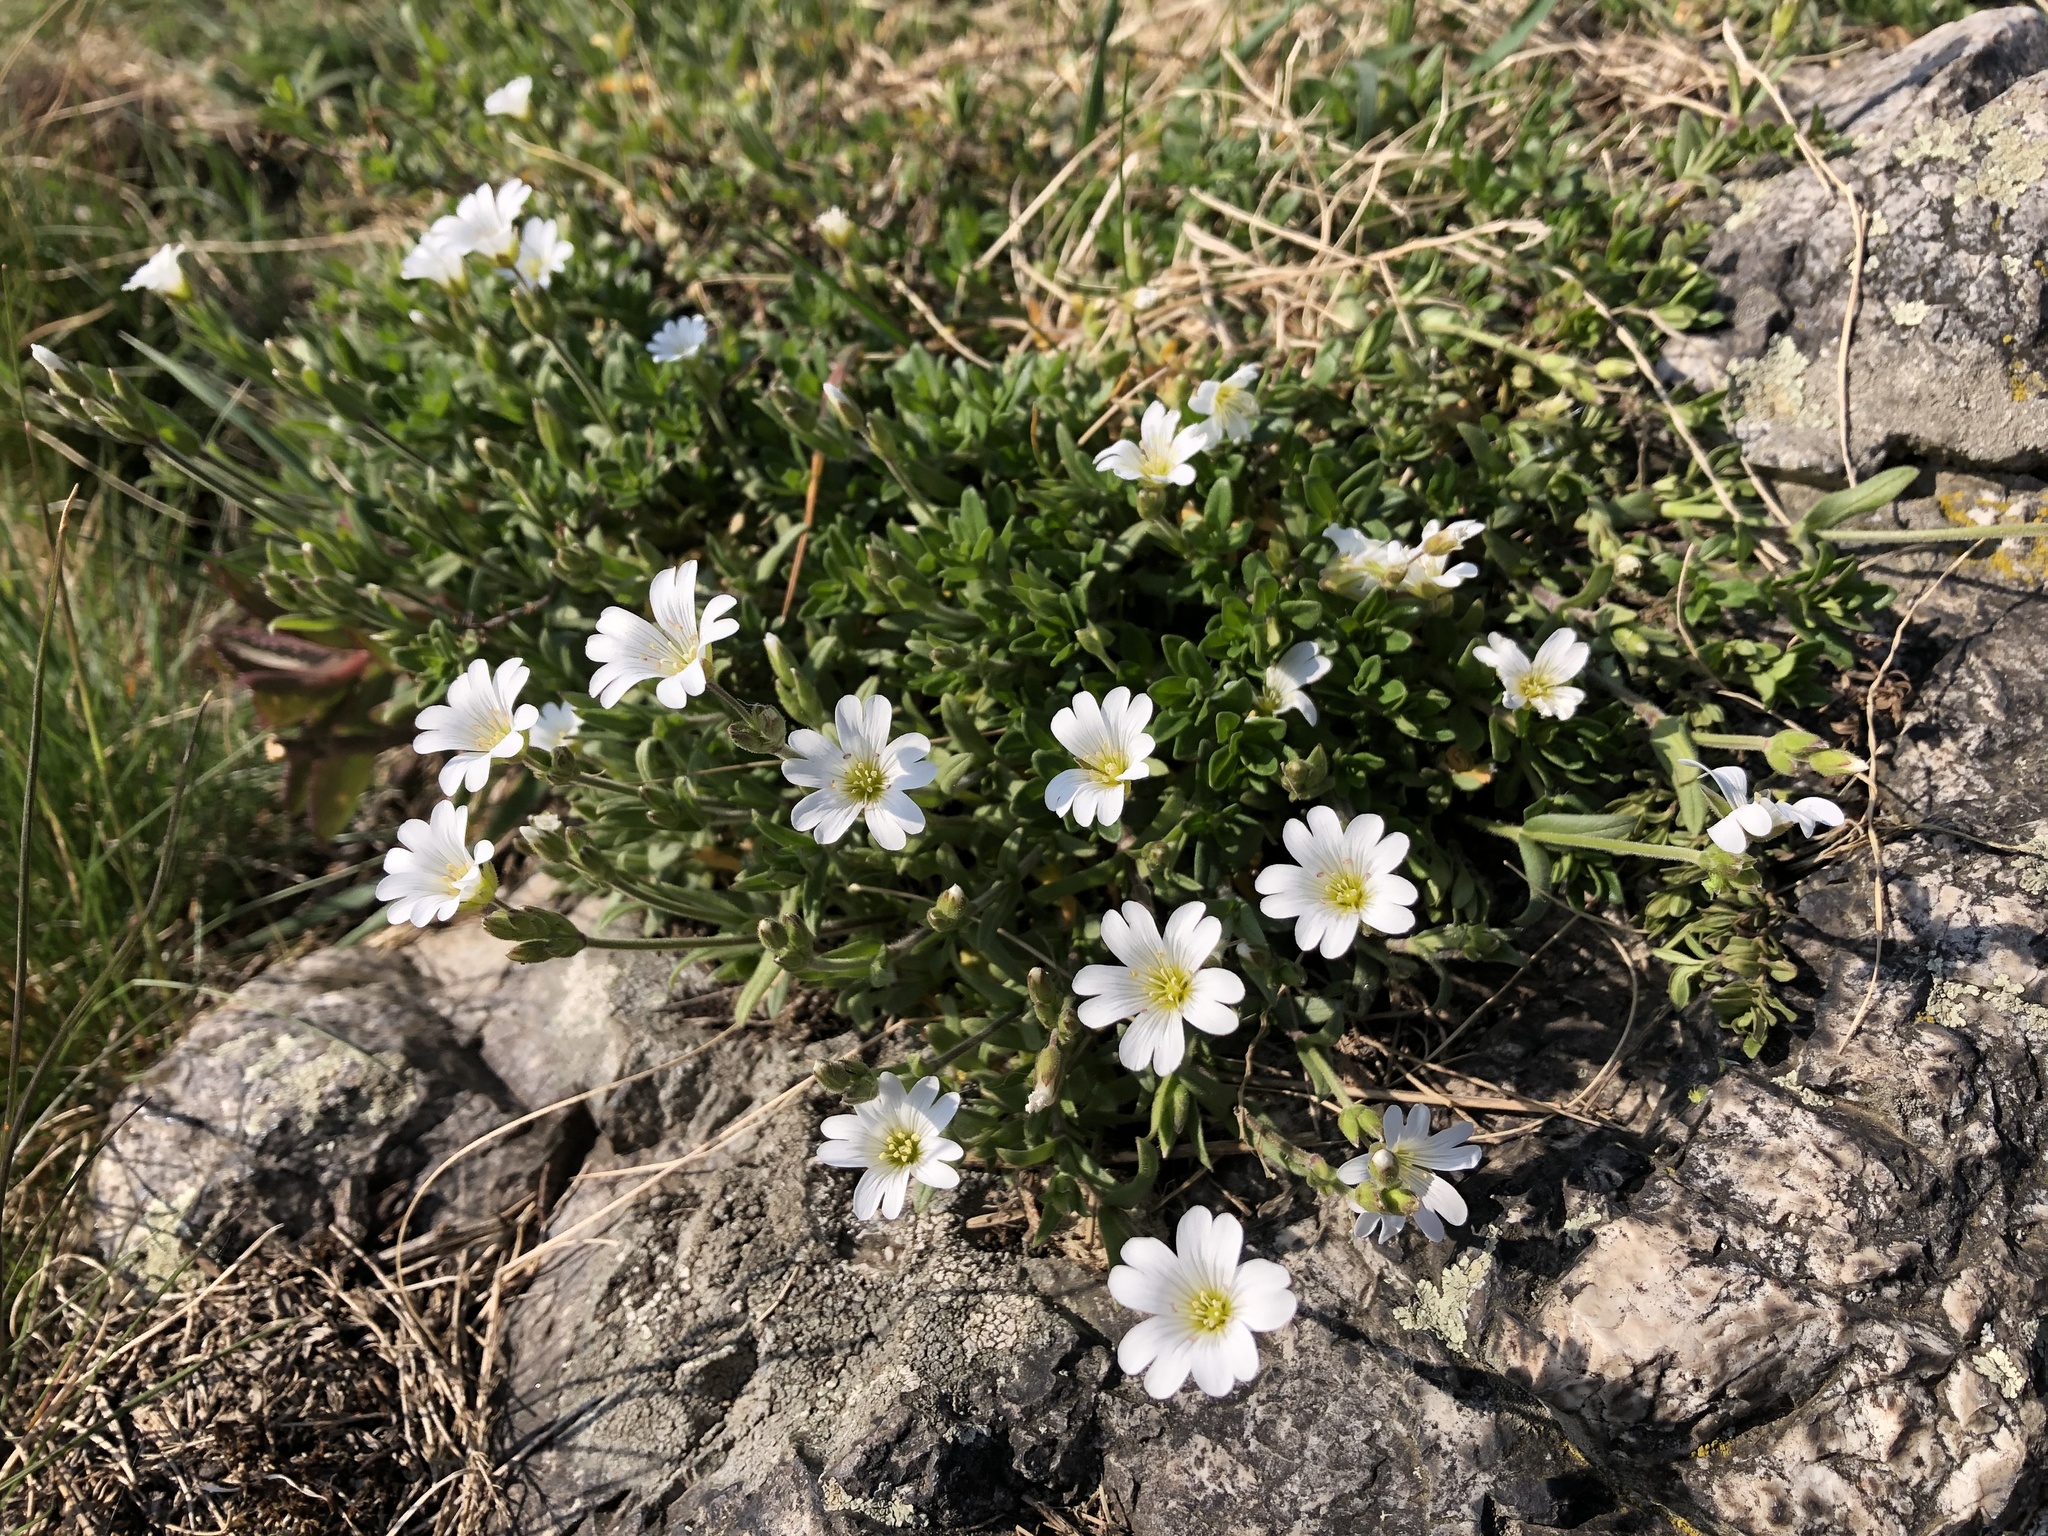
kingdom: Plantae
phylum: Tracheophyta
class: Magnoliopsida
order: Caryophyllales
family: Caryophyllaceae
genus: Cerastium
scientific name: Cerastium arvense
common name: Field mouse-ear
